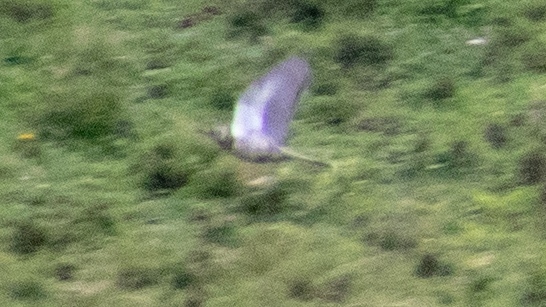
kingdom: Animalia
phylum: Chordata
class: Aves
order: Passeriformes
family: Turdidae
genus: Turdus
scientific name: Turdus pilaris
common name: Fieldfare
